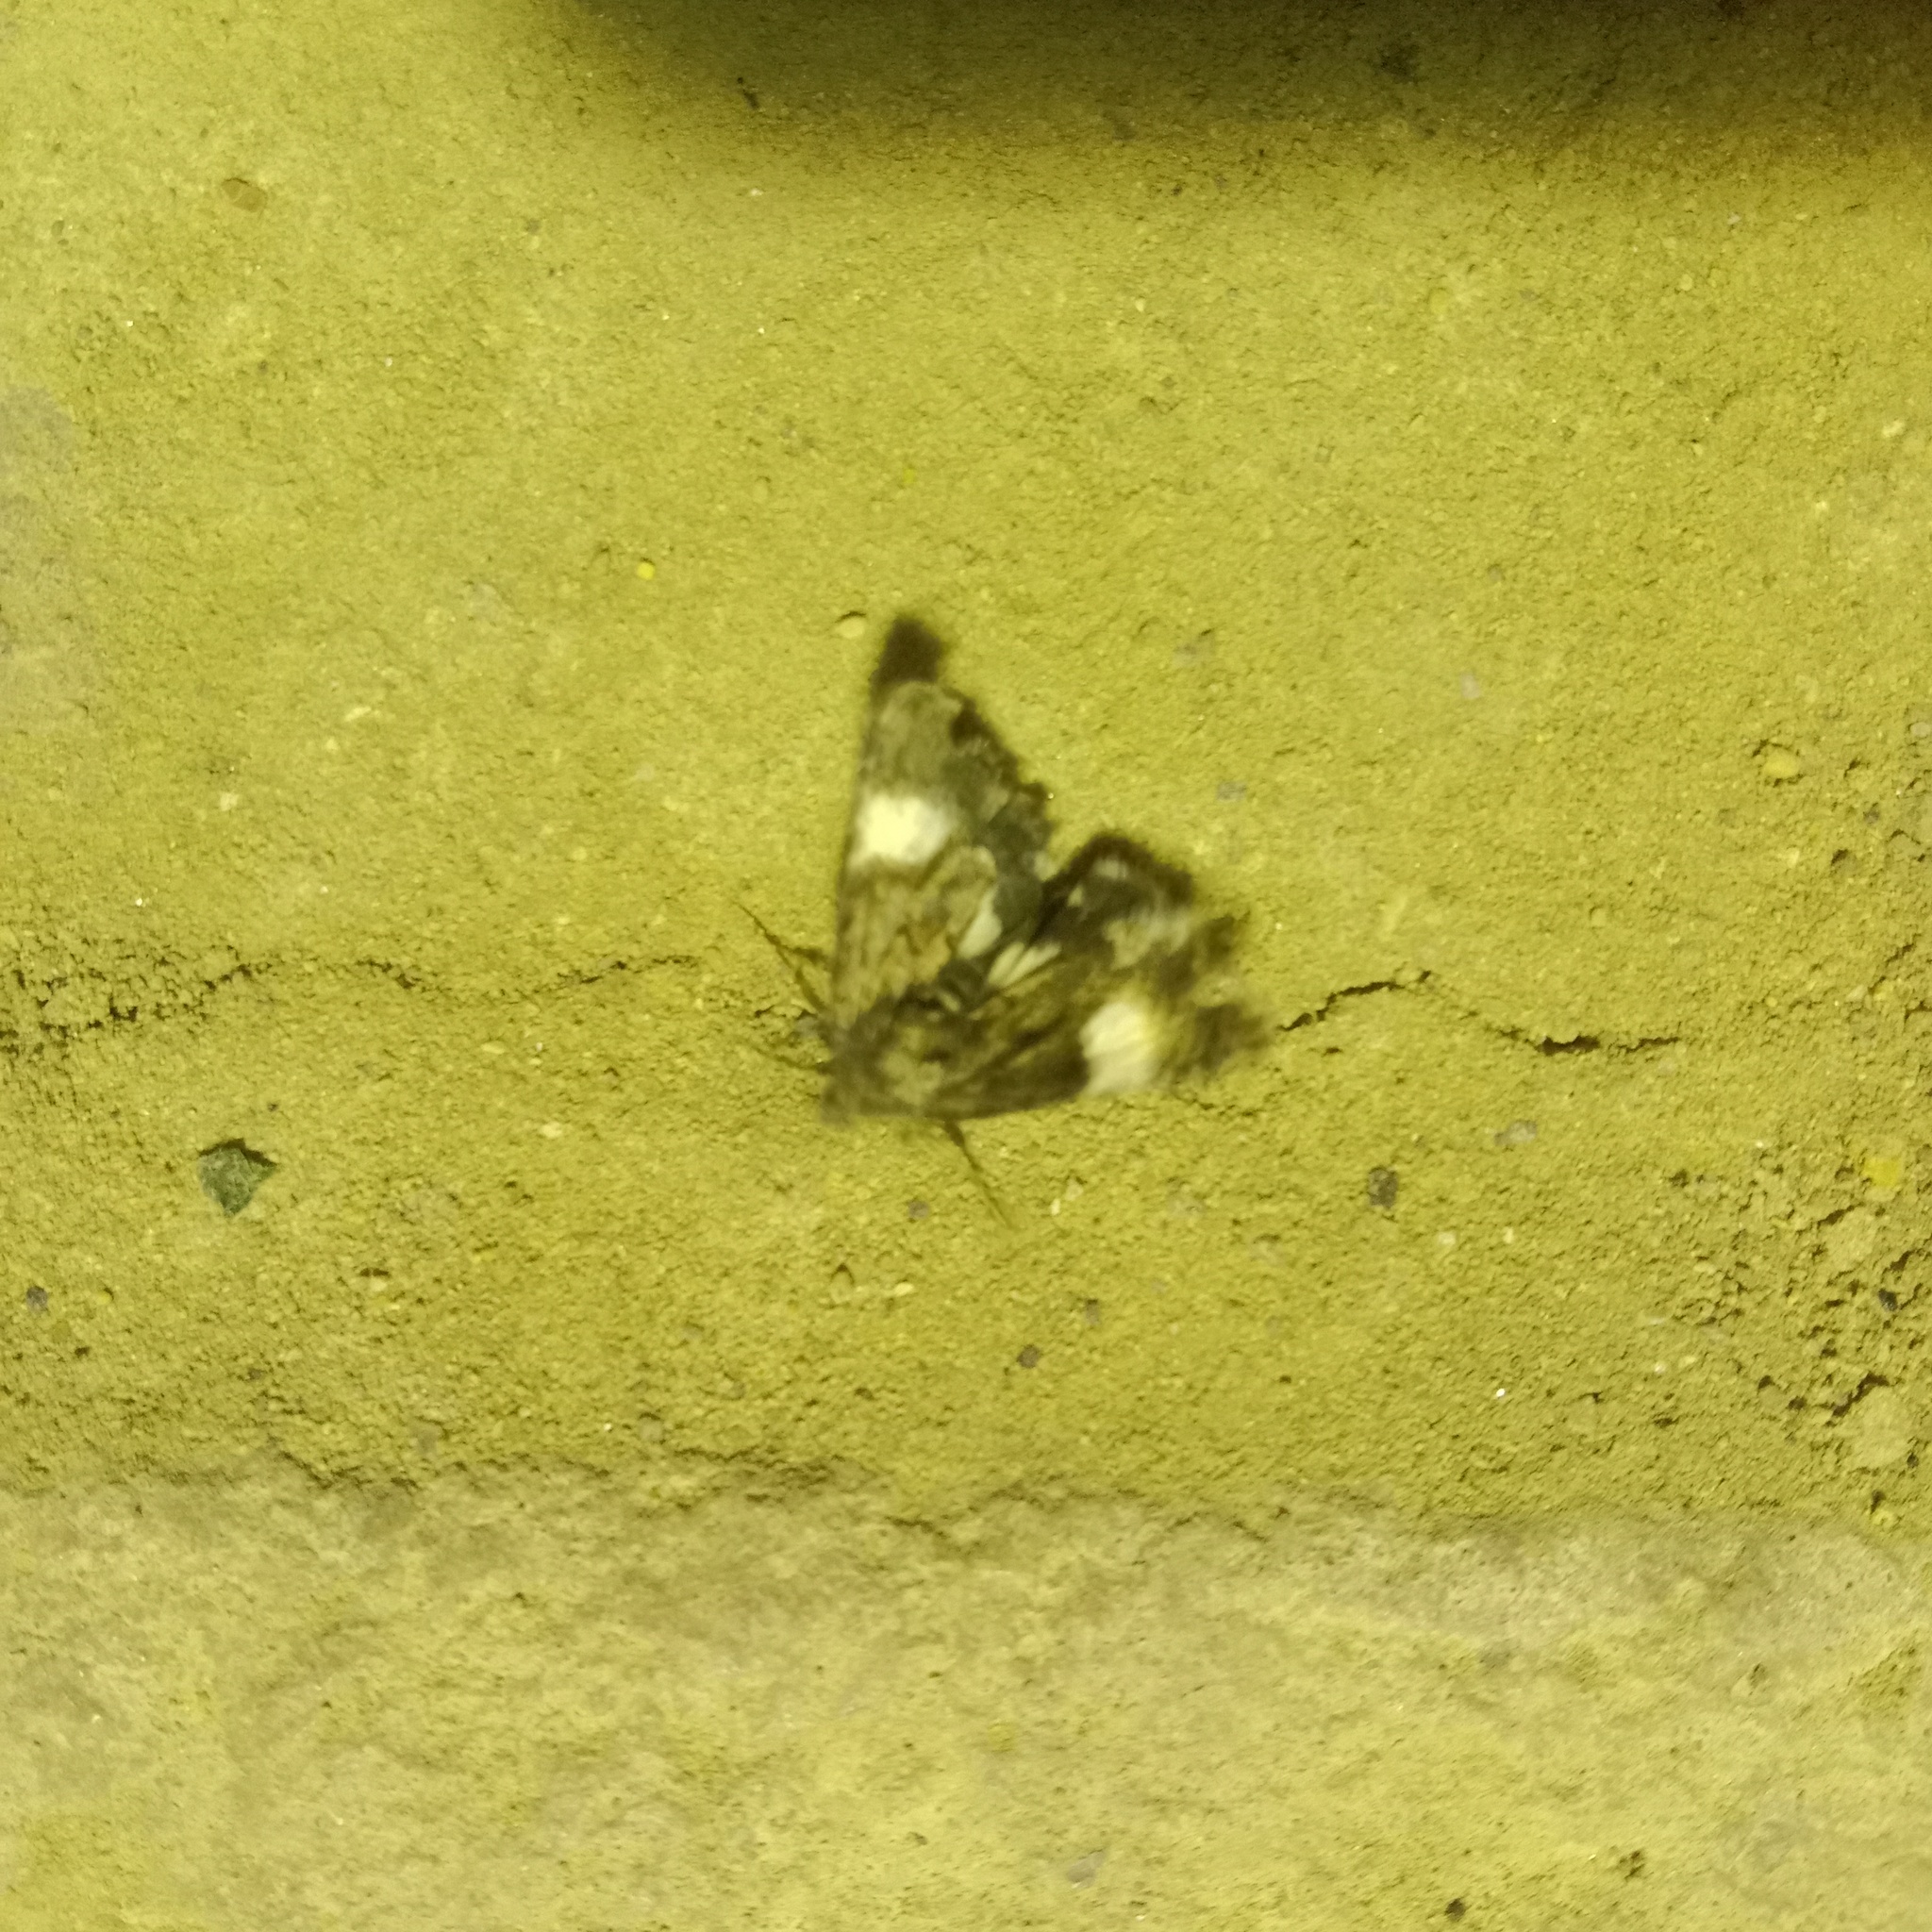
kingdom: Animalia
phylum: Arthropoda
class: Insecta
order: Lepidoptera
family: Erebidae
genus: Tyta
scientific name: Tyta luctuosa
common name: Four-spotted
